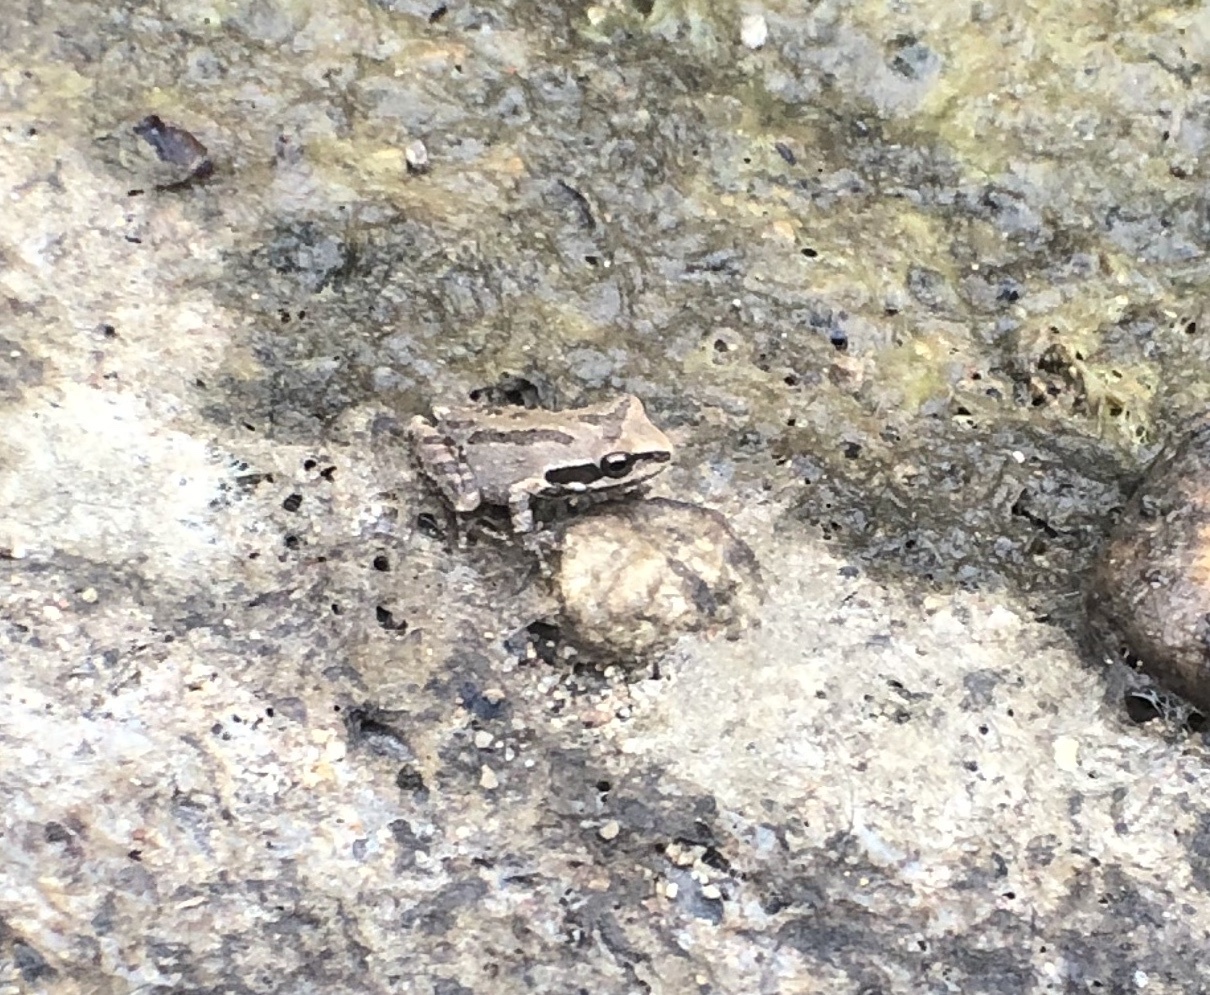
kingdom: Animalia
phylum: Chordata
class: Amphibia
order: Anura
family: Hylidae
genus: Pseudacris
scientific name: Pseudacris regilla
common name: Pacific chorus frog
